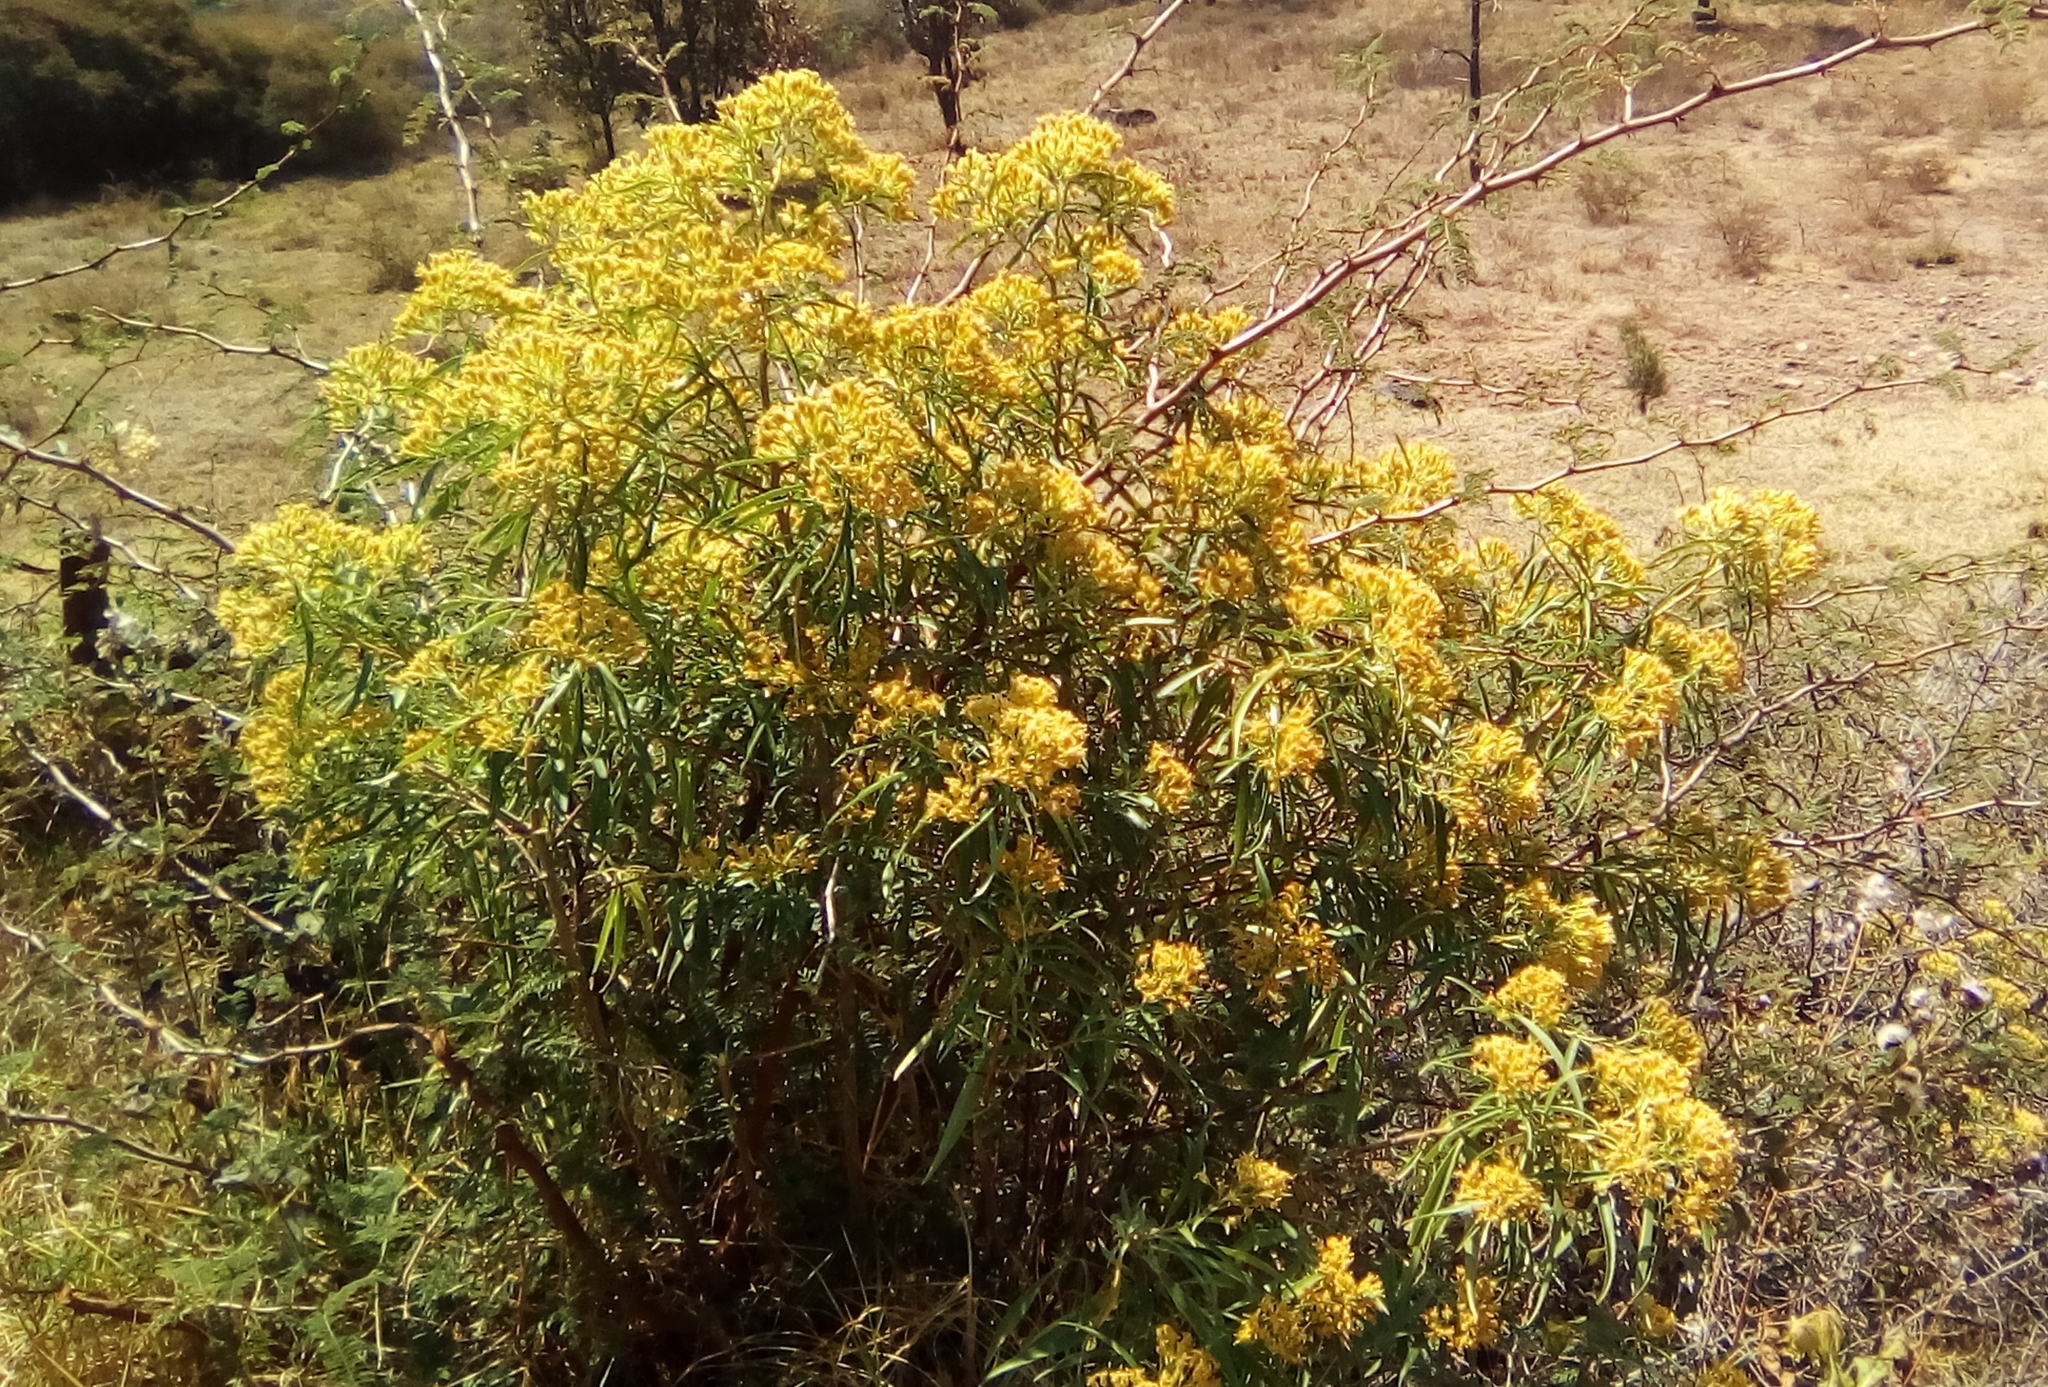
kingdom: Plantae
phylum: Tracheophyta
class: Magnoliopsida
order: Asterales
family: Asteraceae
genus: Barkleyanthus
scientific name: Barkleyanthus salicifolius
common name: Willow ragwort
